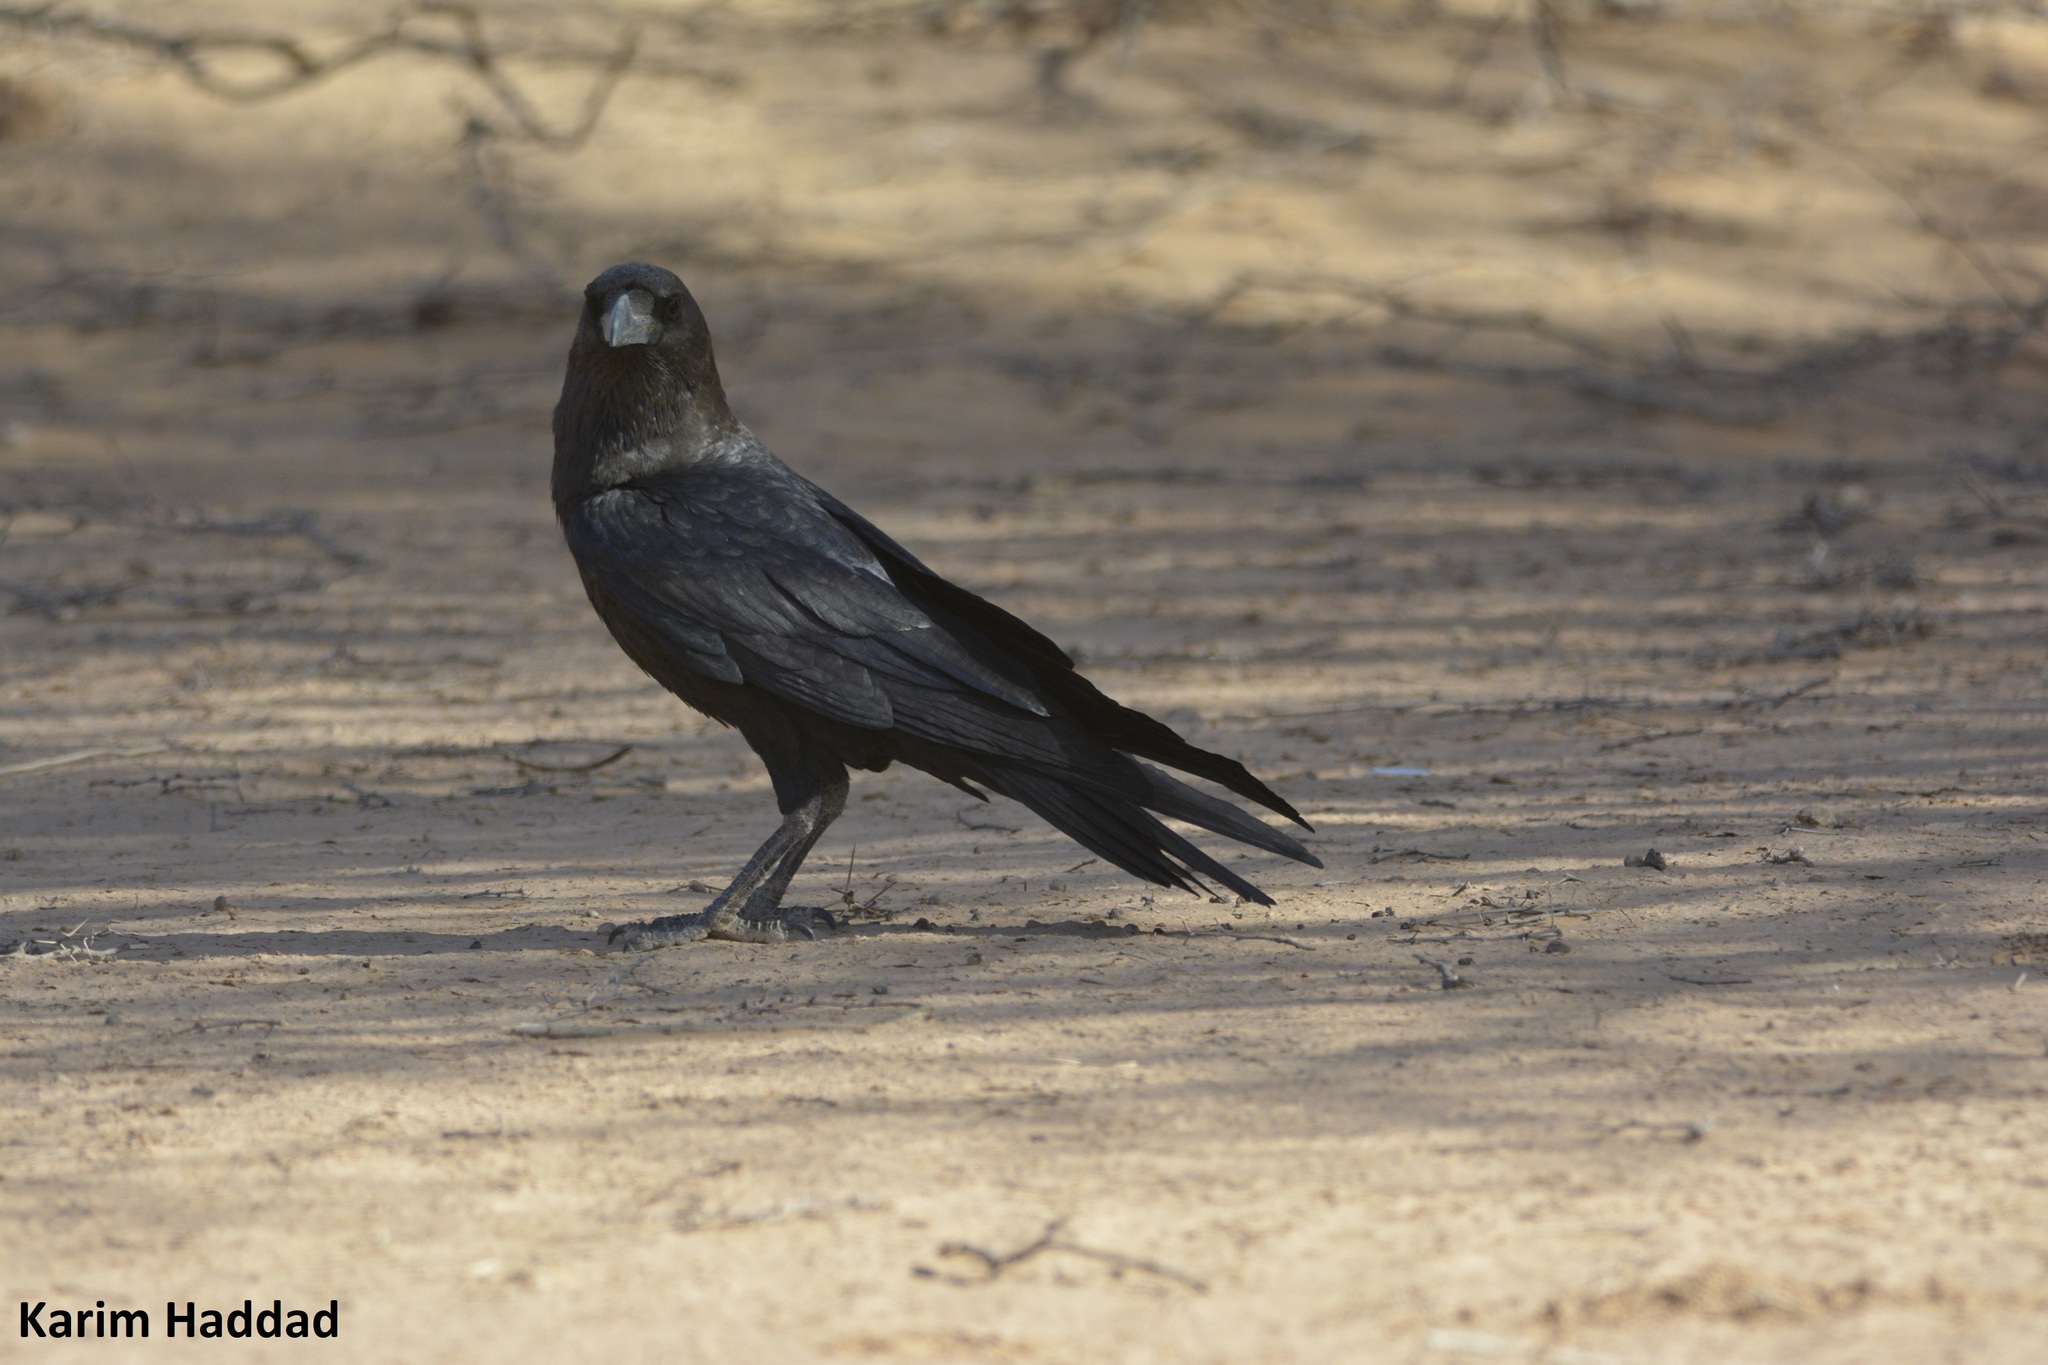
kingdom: Animalia
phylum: Chordata
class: Aves
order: Passeriformes
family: Corvidae
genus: Corvus
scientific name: Corvus ruficollis
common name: Brown-necked raven
